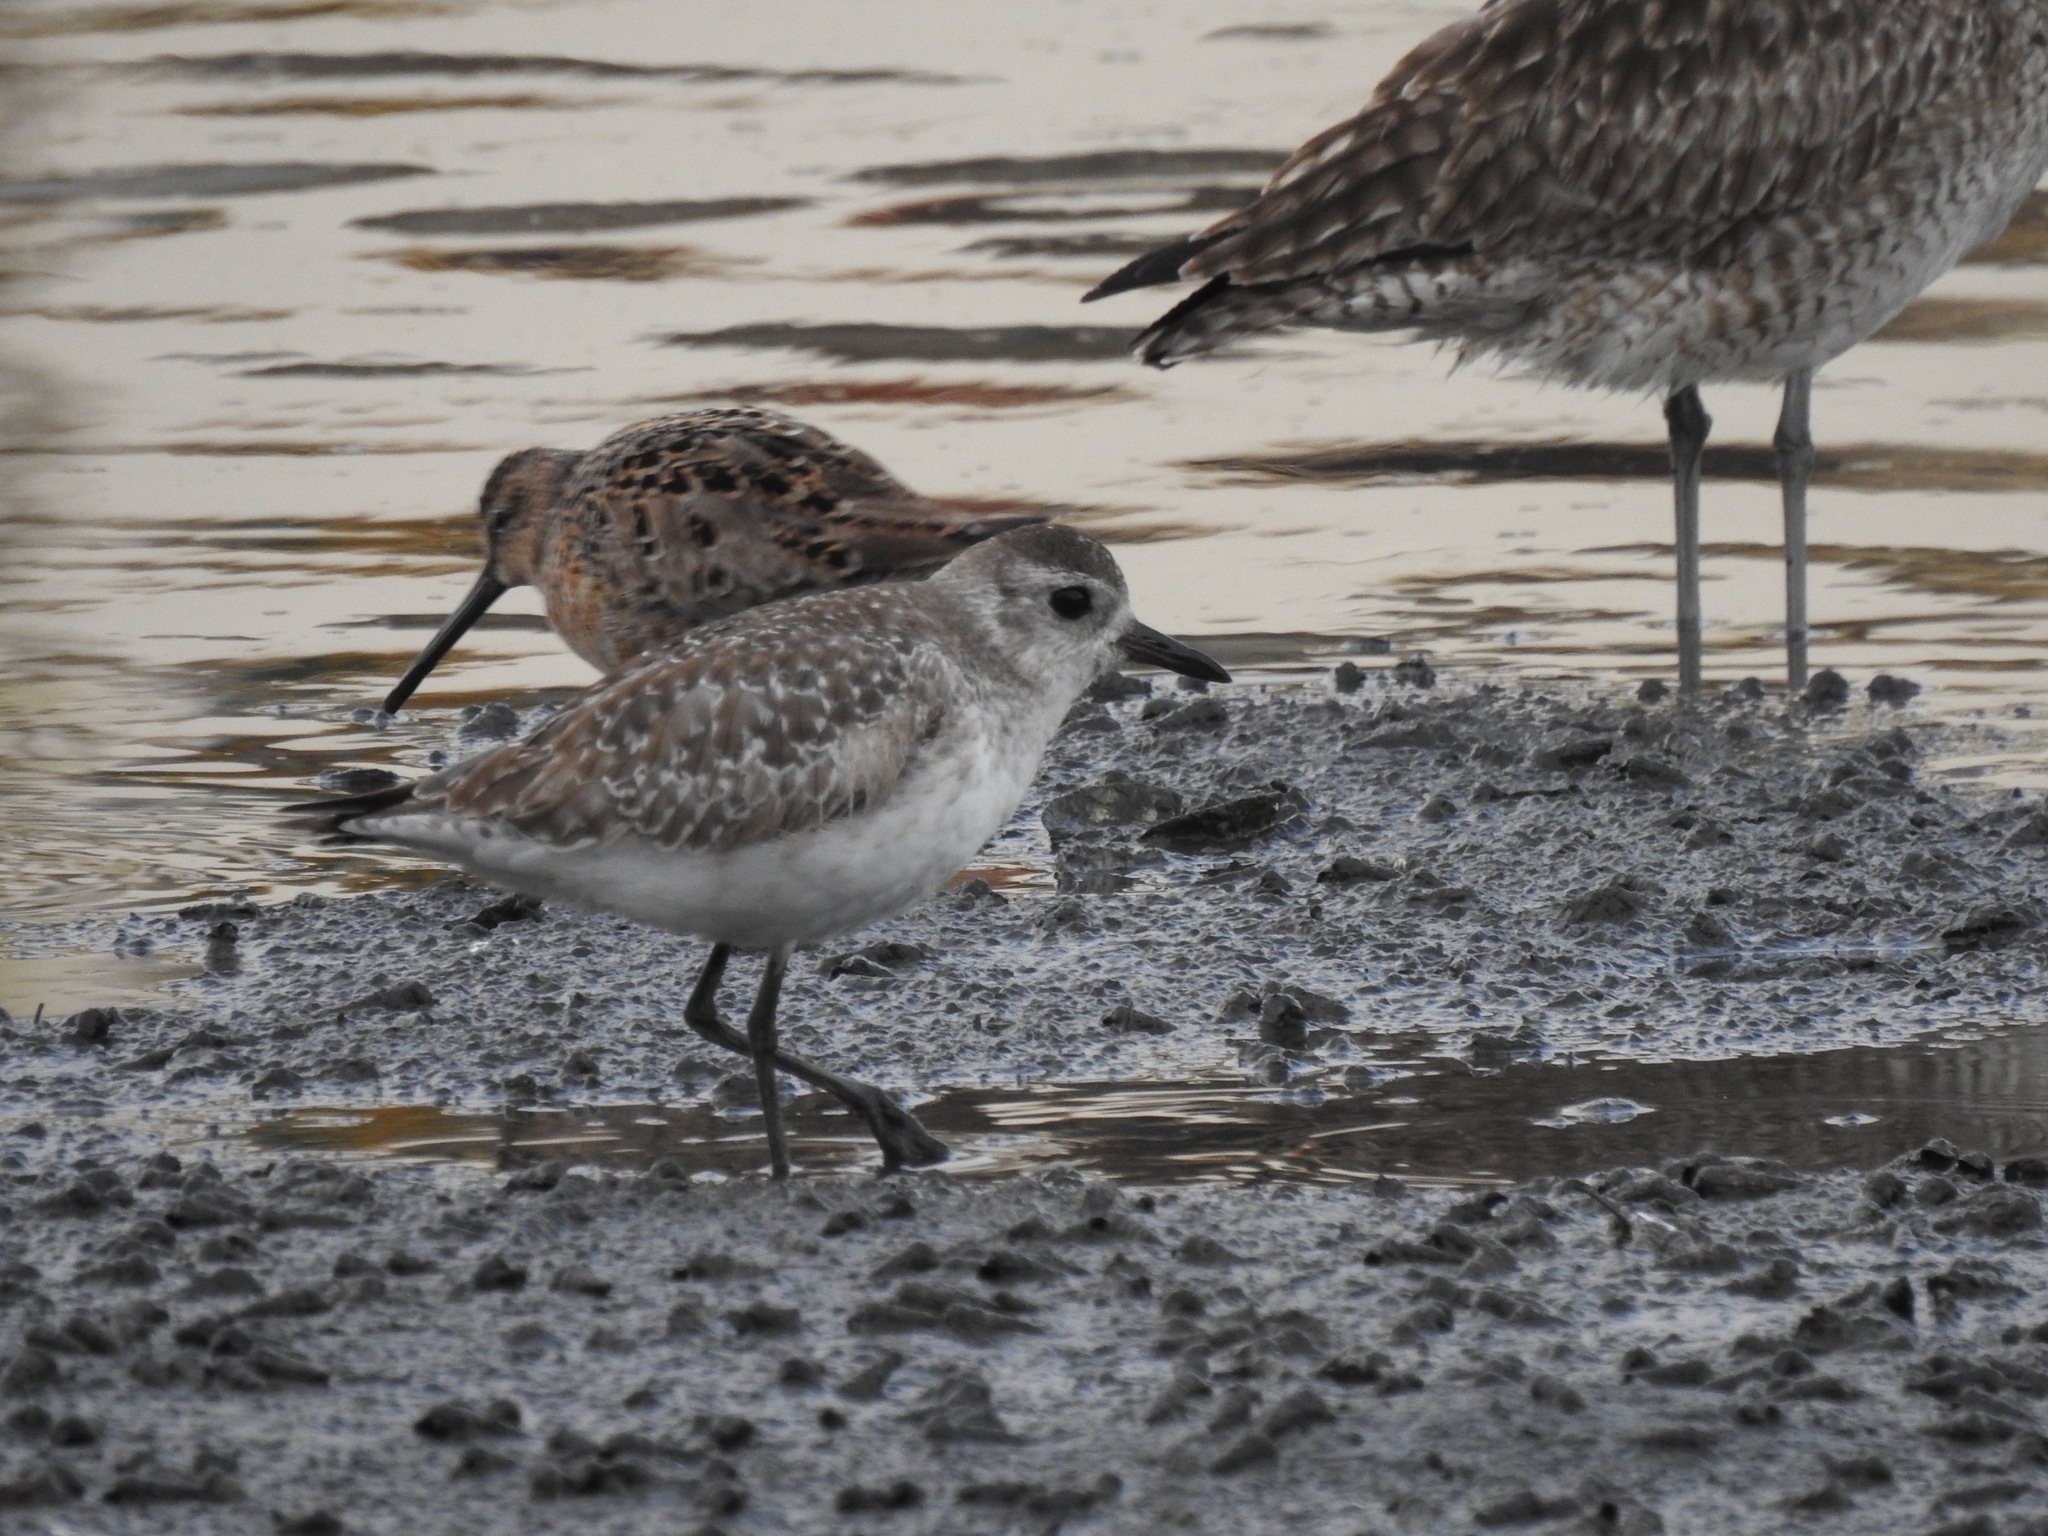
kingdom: Animalia
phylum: Chordata
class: Aves
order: Charadriiformes
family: Charadriidae
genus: Pluvialis
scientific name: Pluvialis squatarola
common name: Grey plover
